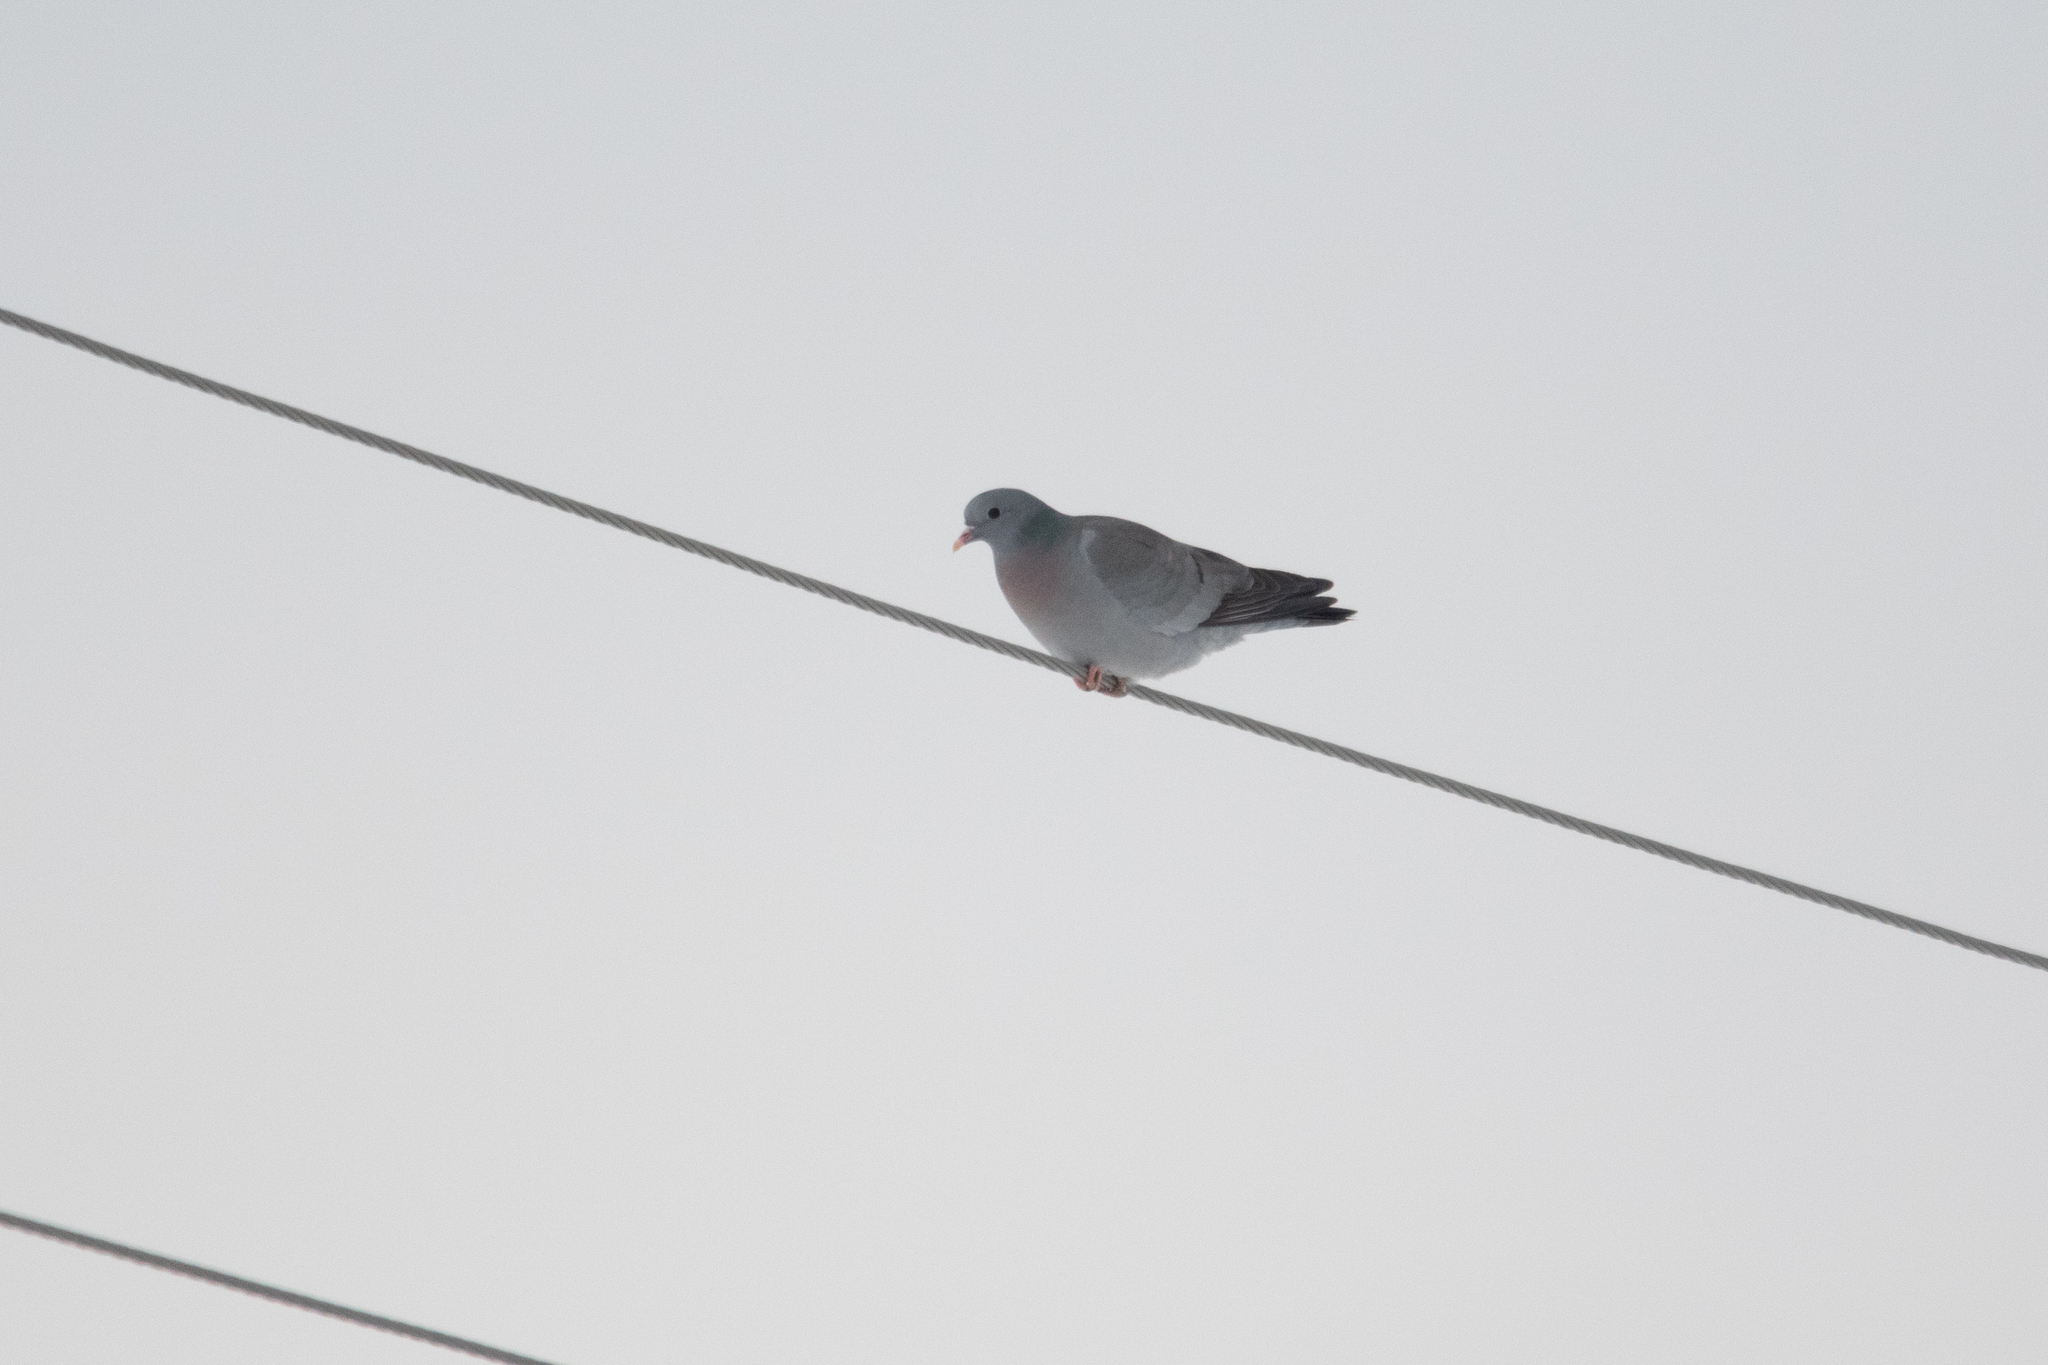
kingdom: Animalia
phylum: Chordata
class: Aves
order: Columbiformes
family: Columbidae
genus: Columba
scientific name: Columba oenas
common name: Stock dove
